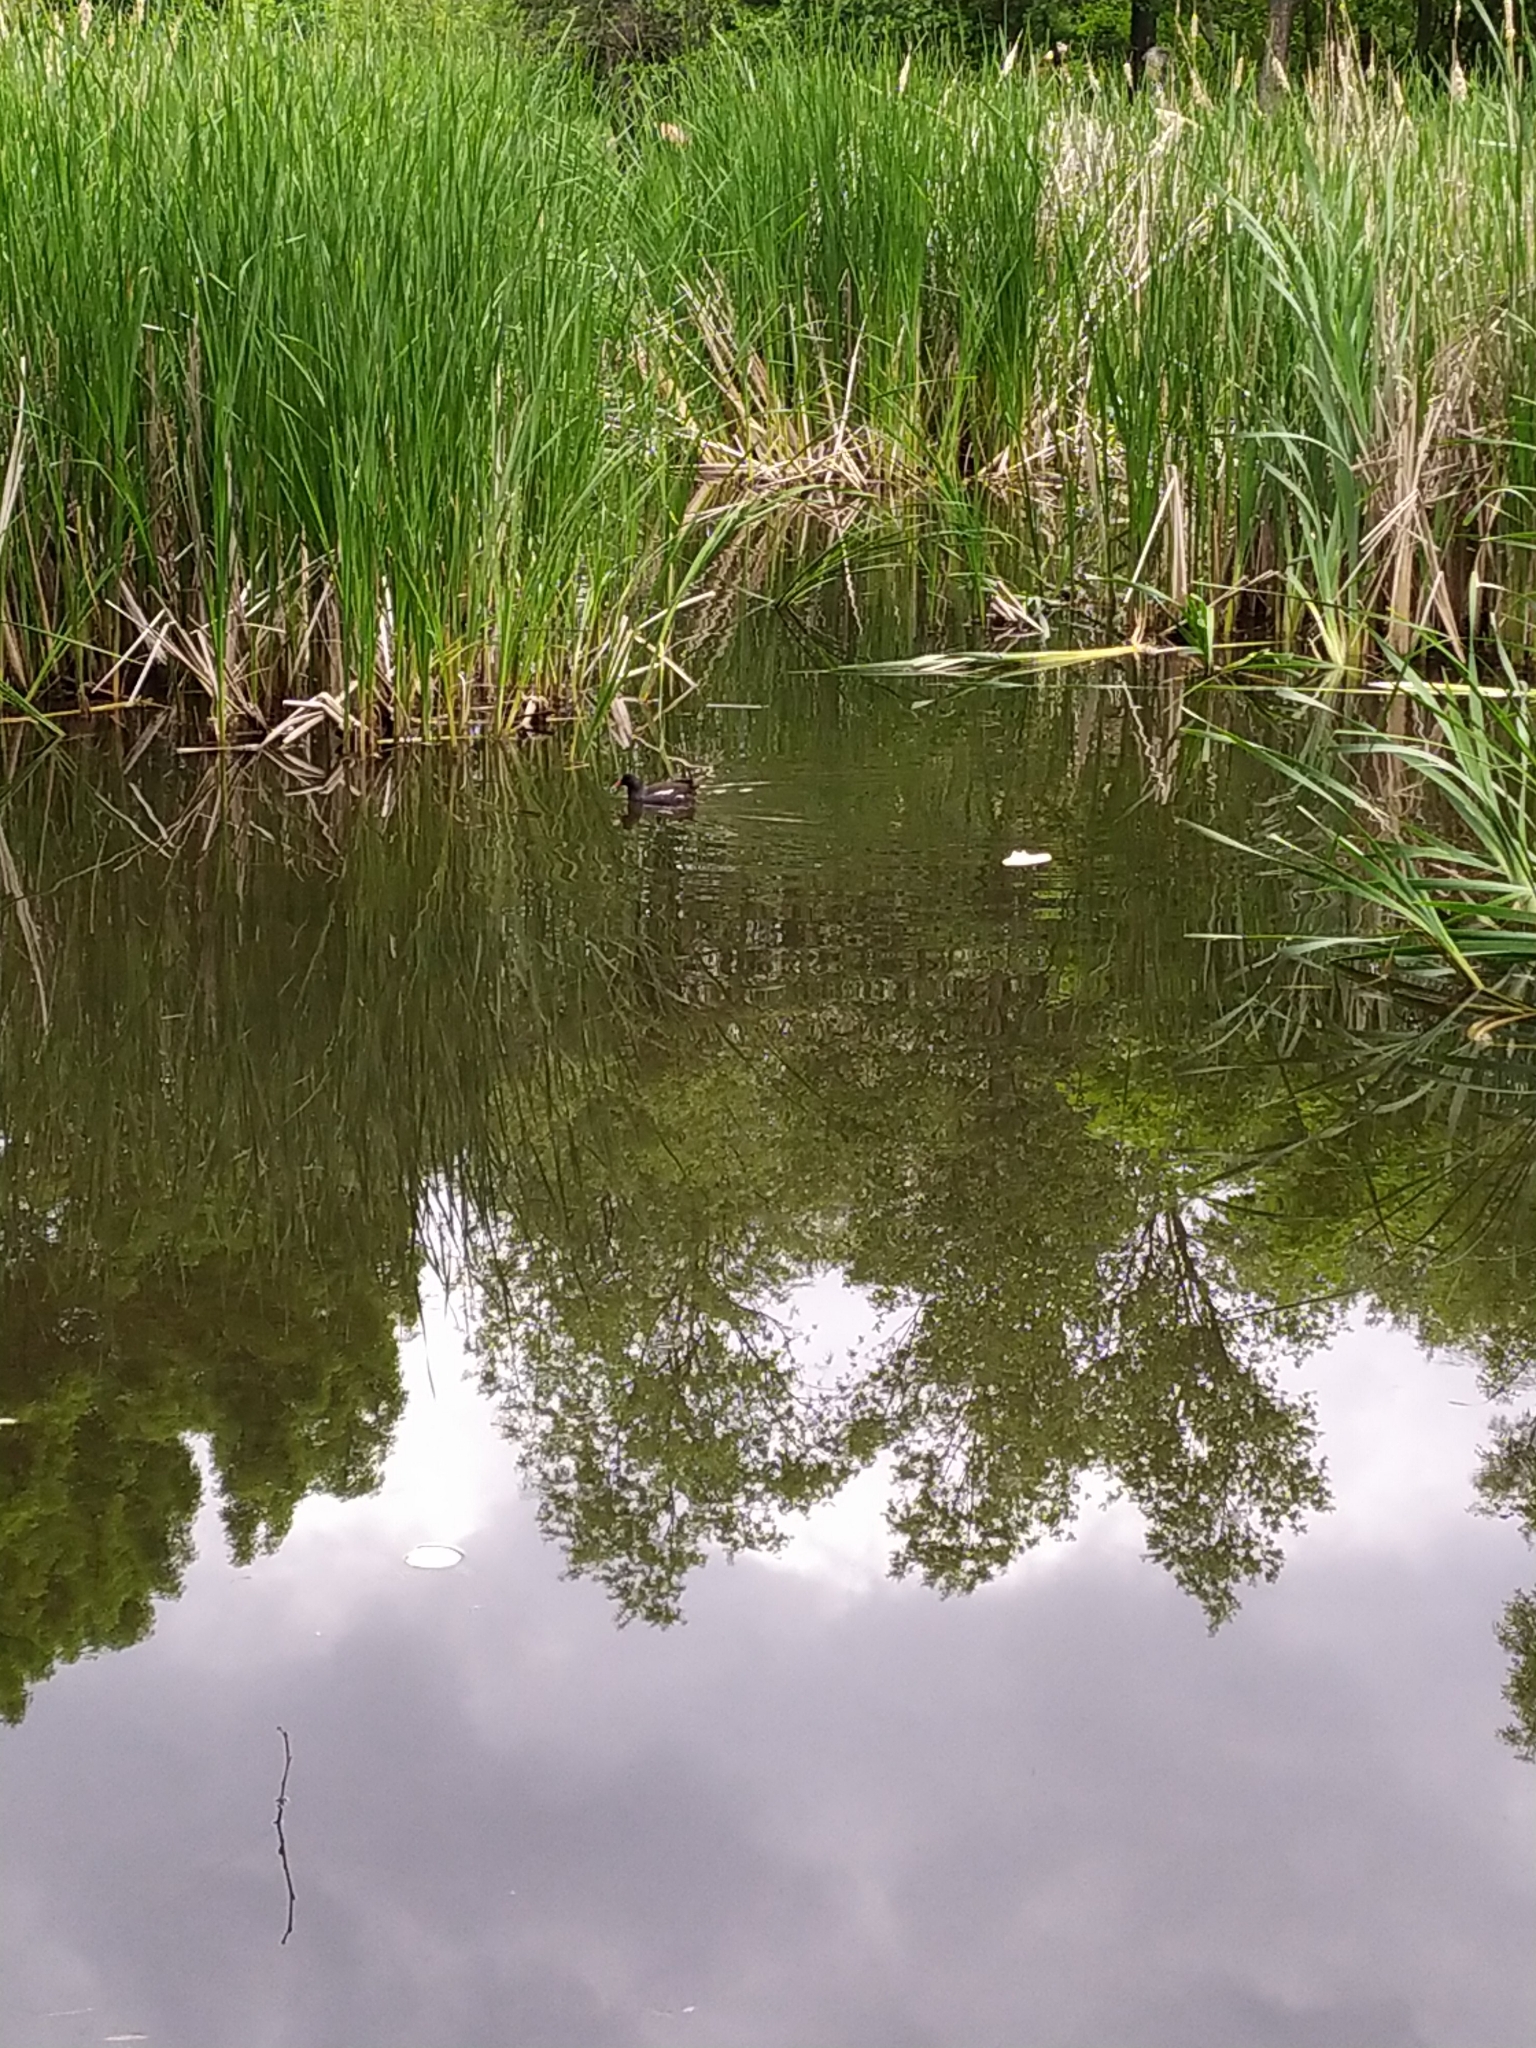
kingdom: Animalia
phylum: Chordata
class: Aves
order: Gruiformes
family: Rallidae
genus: Gallinula
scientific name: Gallinula chloropus
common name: Common moorhen
